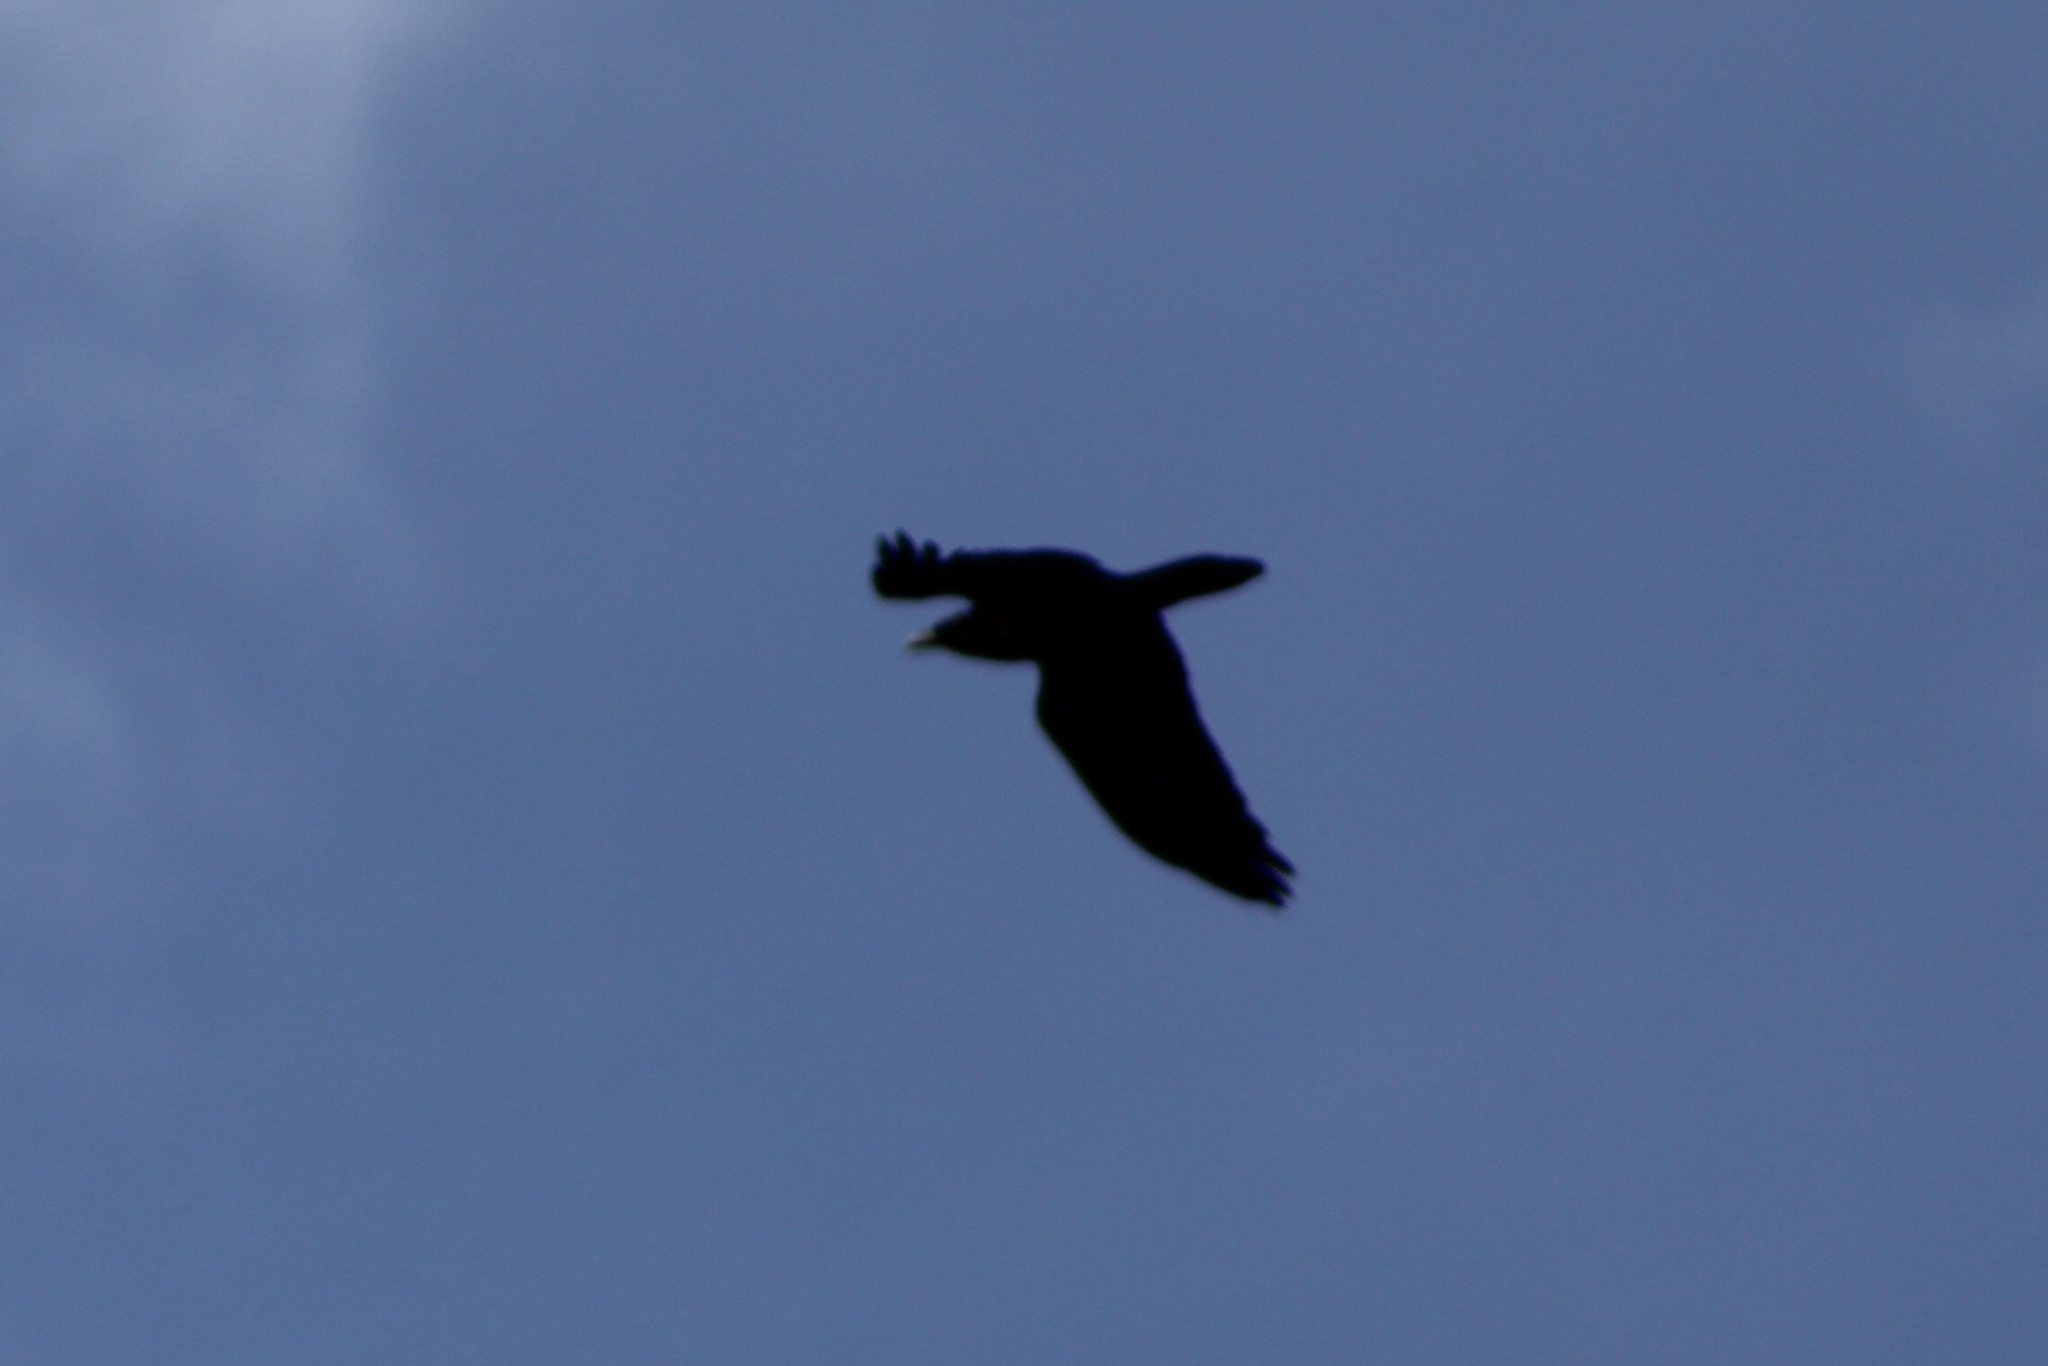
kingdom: Animalia
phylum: Chordata
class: Aves
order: Passeriformes
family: Corvidae
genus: Corvus
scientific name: Corvus corax
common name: Common raven
